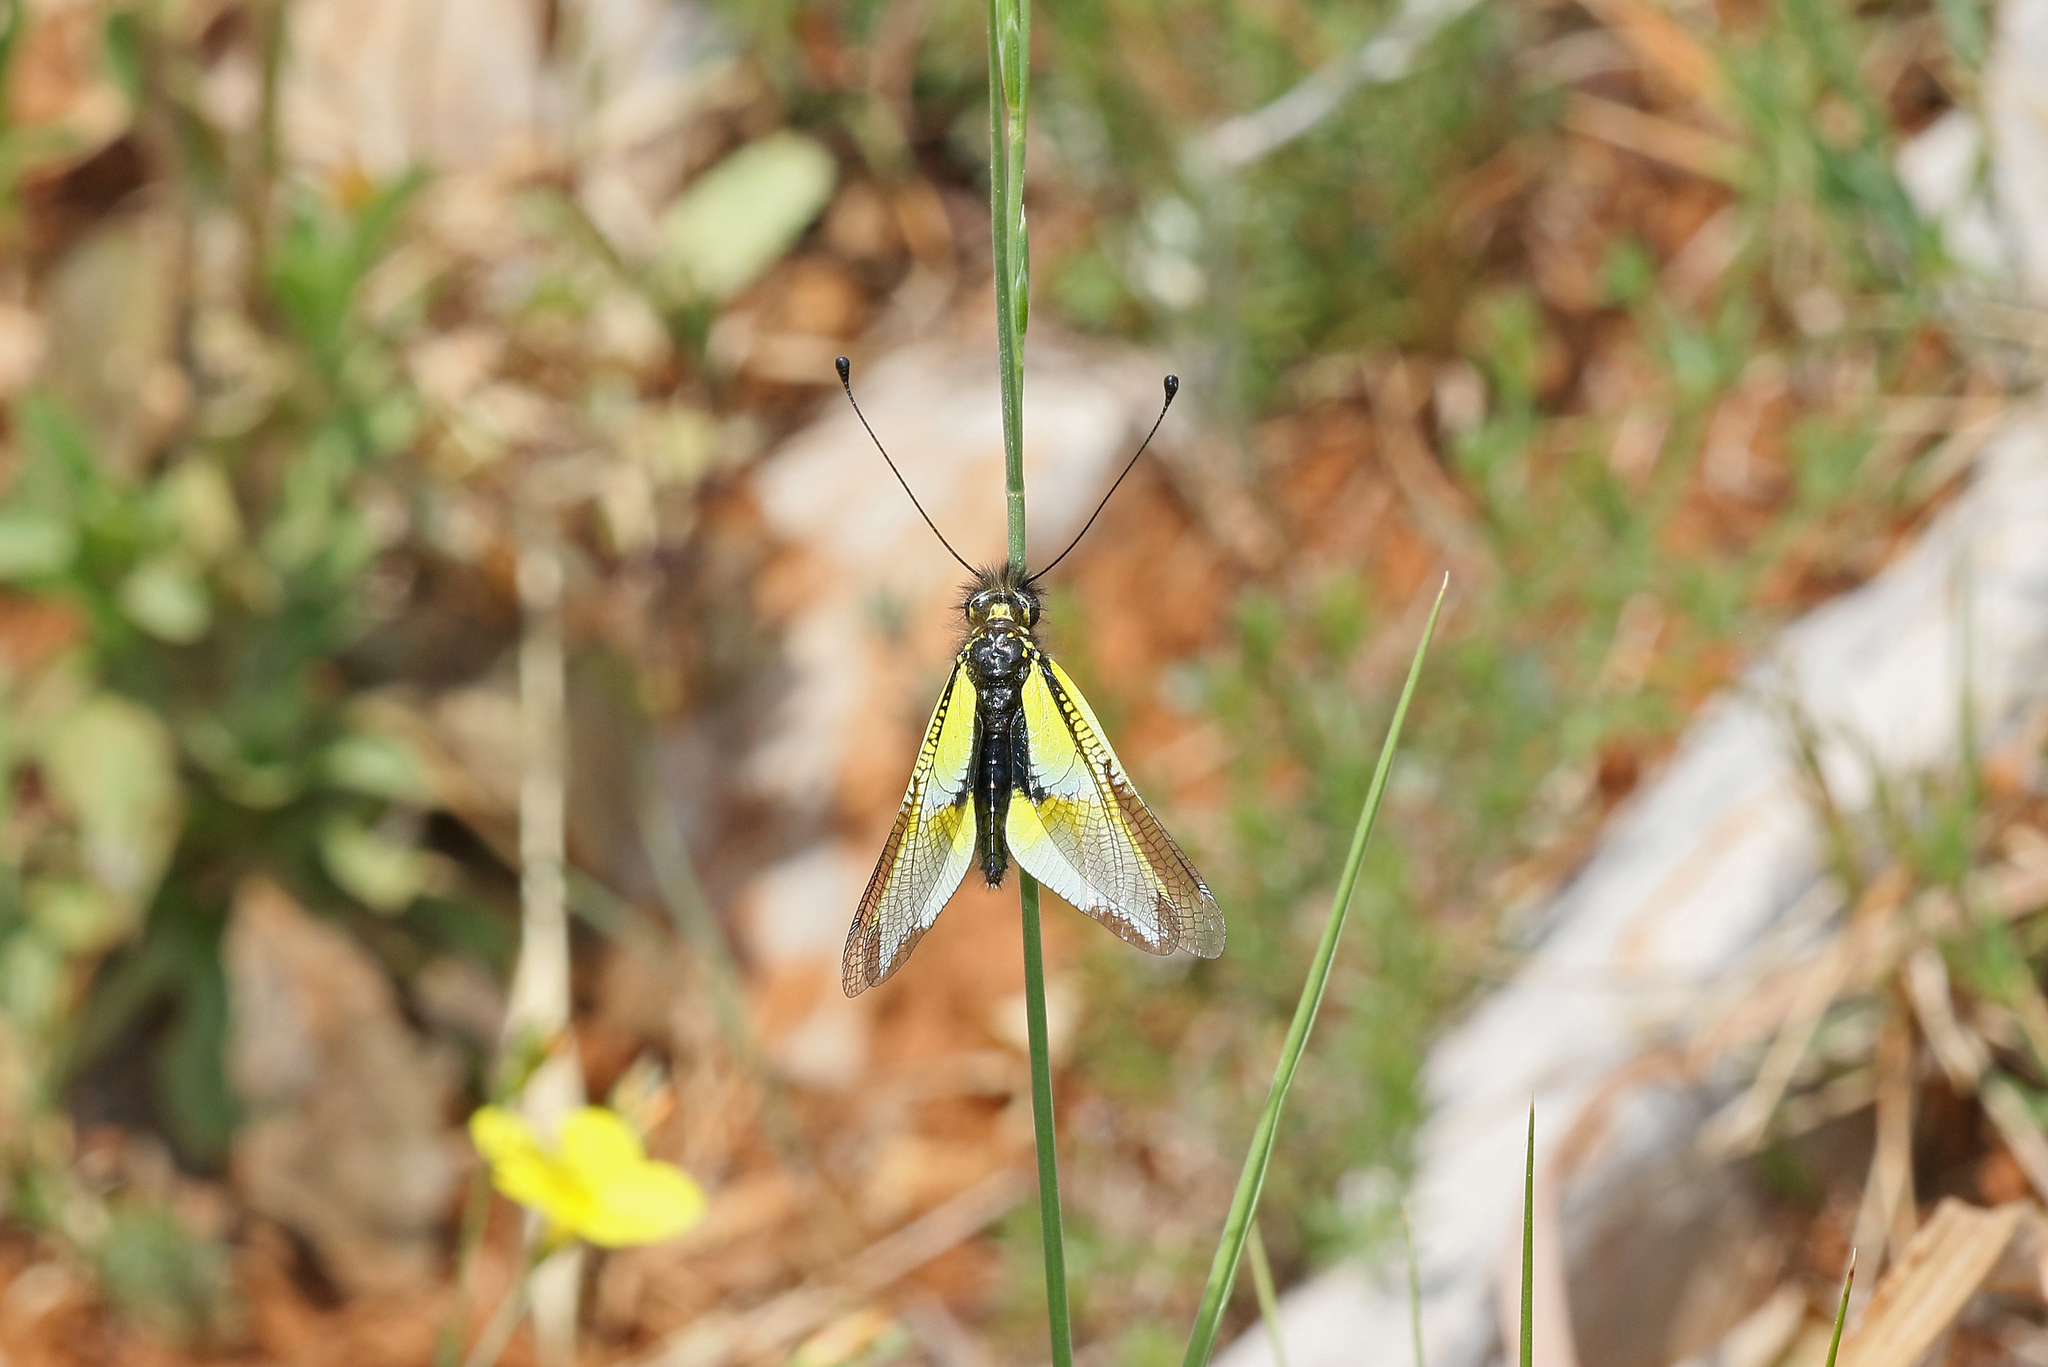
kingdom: Animalia
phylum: Arthropoda
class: Insecta
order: Neuroptera
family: Ascalaphidae
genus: Libelloides
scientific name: Libelloides baeticus
